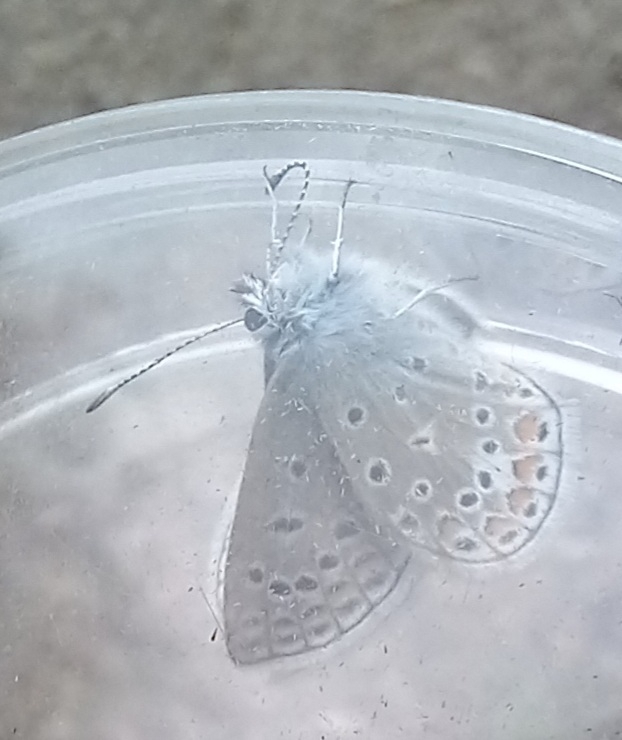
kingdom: Animalia
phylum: Arthropoda
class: Insecta
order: Lepidoptera
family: Lycaenidae
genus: Polyommatus
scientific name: Polyommatus icarus
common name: Common blue
